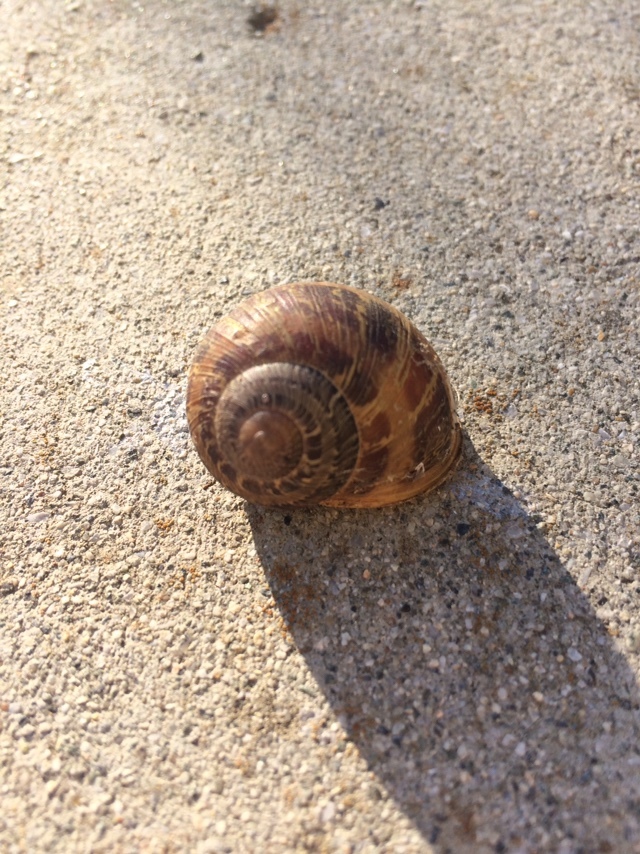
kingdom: Animalia
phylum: Mollusca
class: Gastropoda
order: Stylommatophora
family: Helicidae
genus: Cornu
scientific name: Cornu aspersum
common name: Brown garden snail
